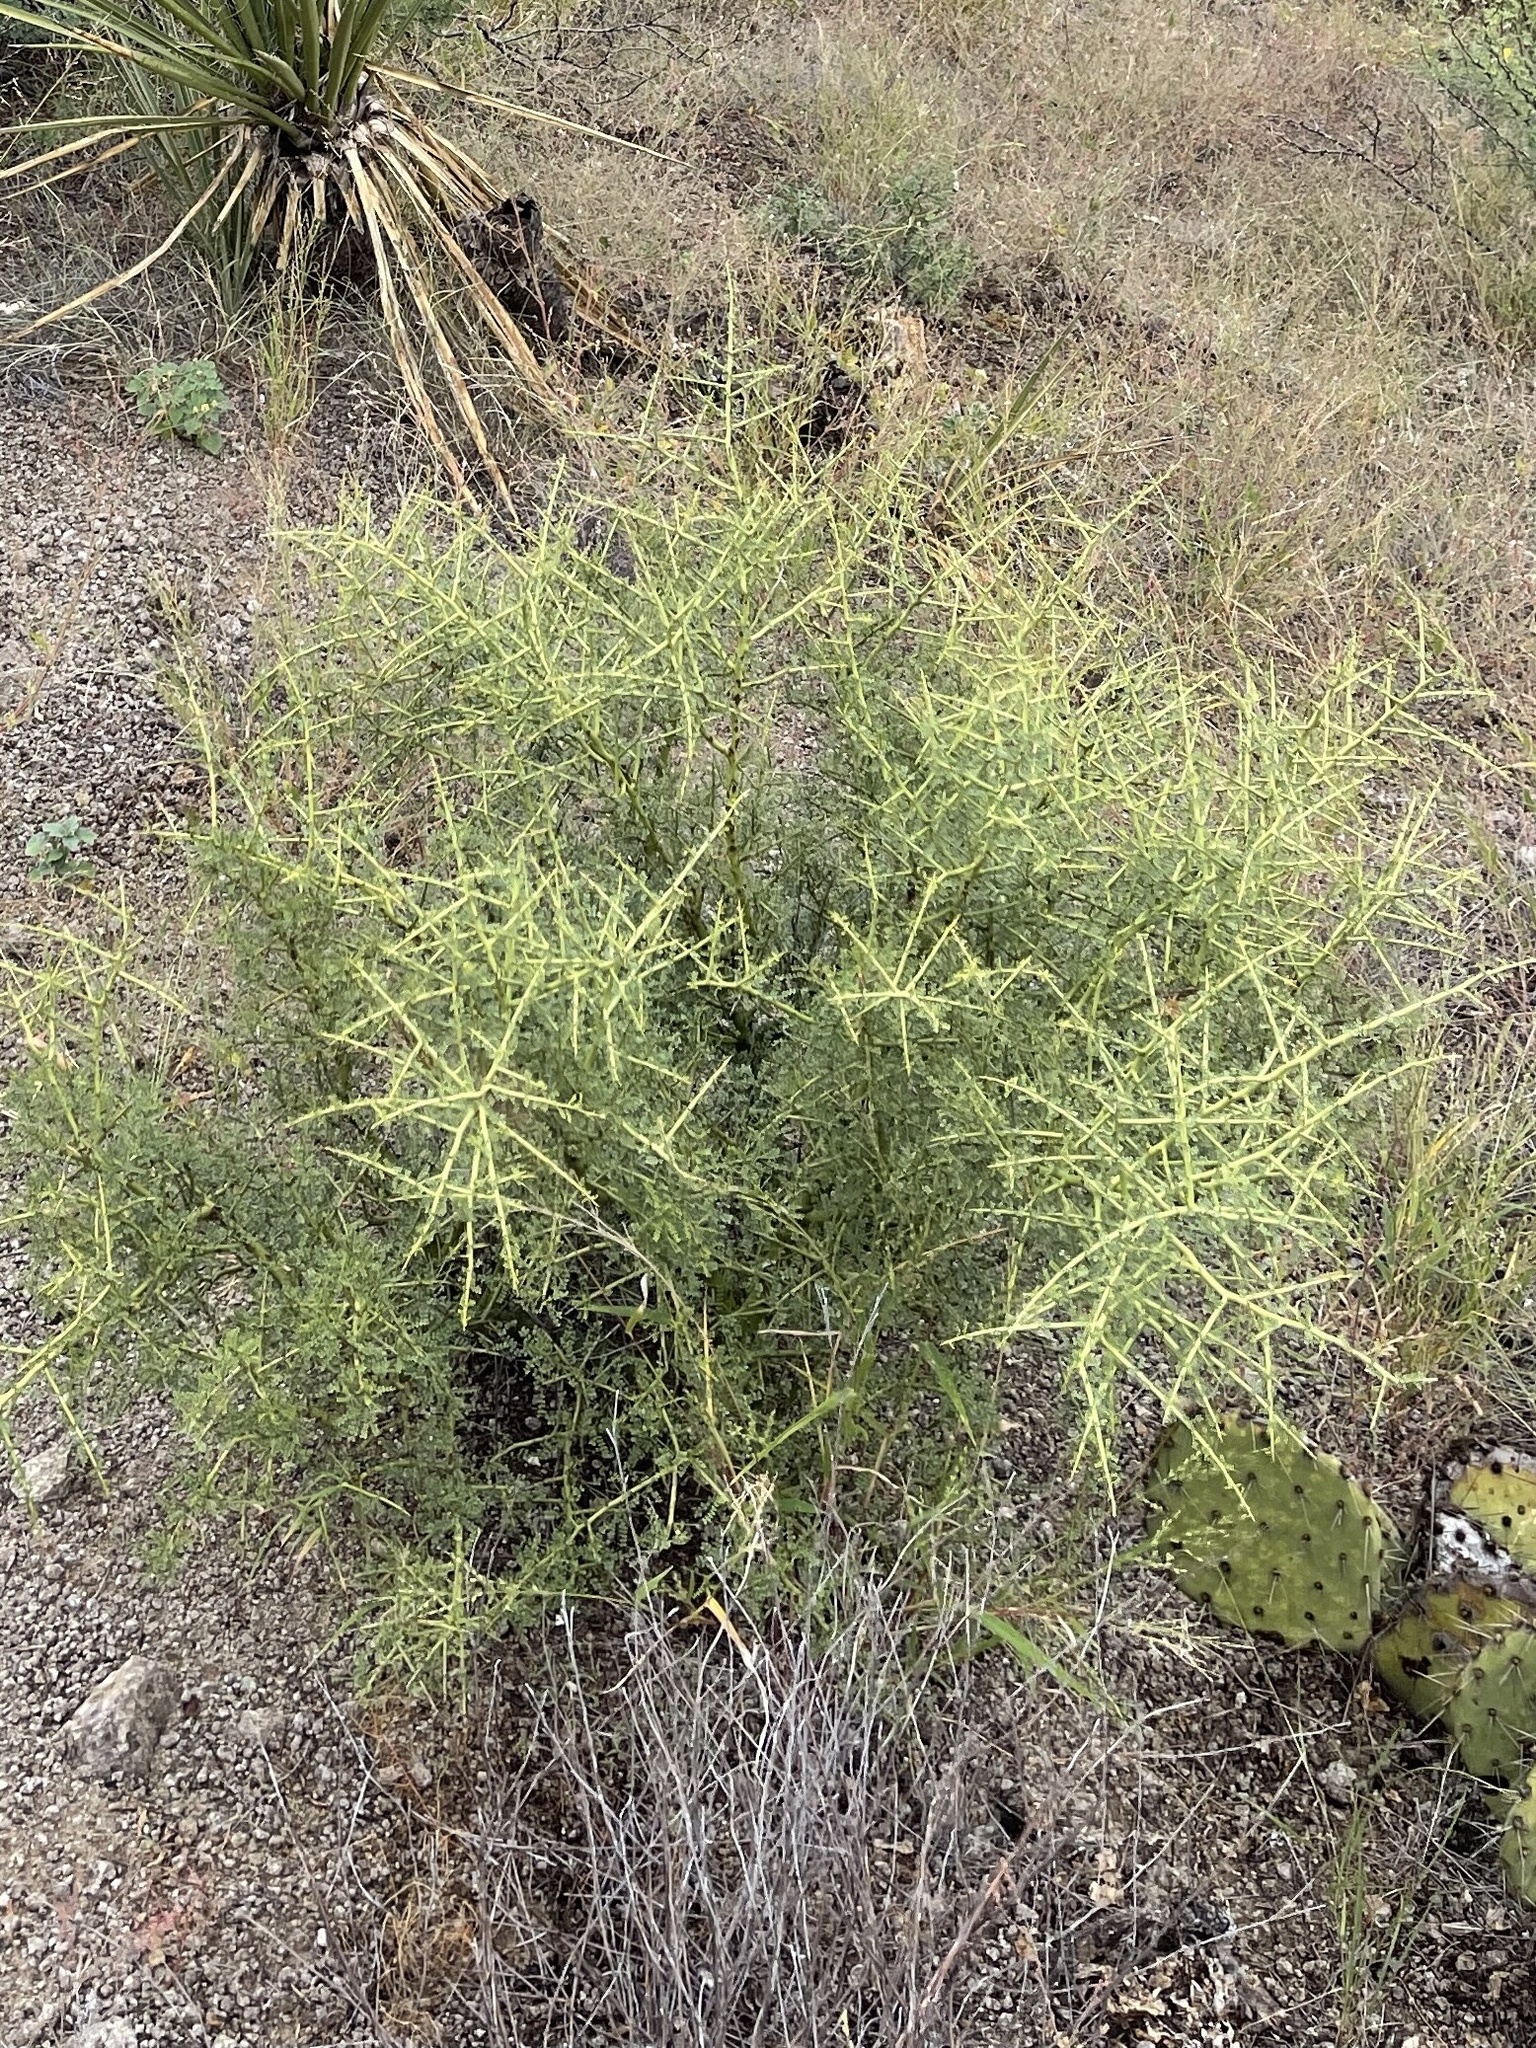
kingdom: Plantae
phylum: Tracheophyta
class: Magnoliopsida
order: Fabales
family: Fabaceae
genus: Parkinsonia
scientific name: Parkinsonia microphylla
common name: Yellow paloverde
